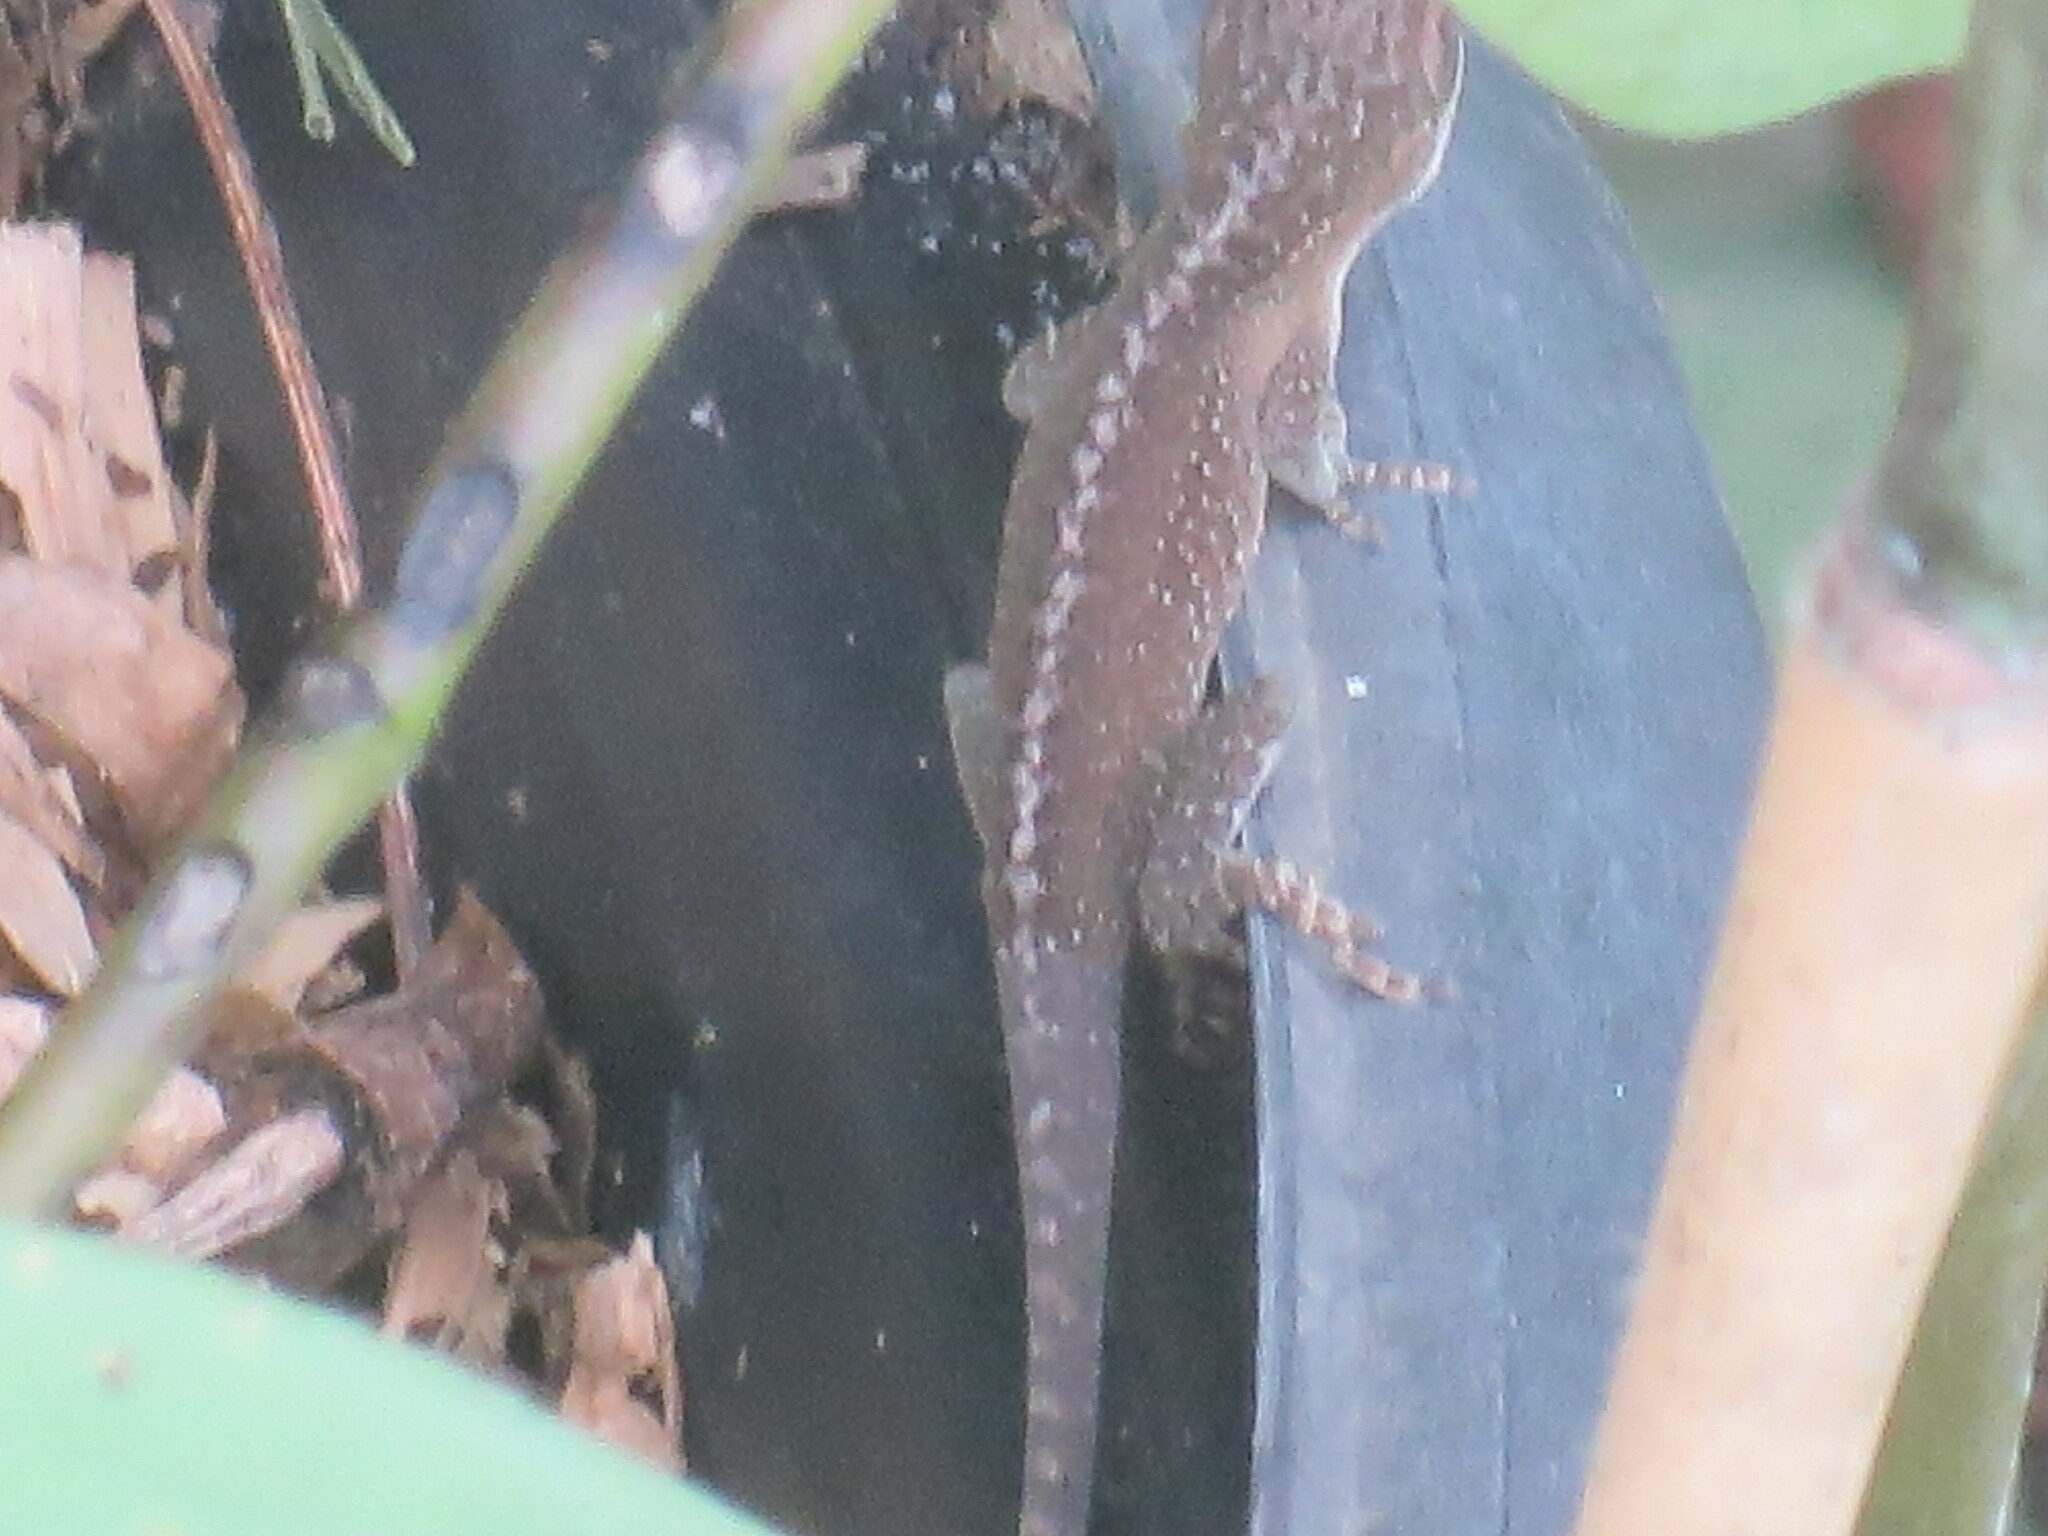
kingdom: Animalia
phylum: Chordata
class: Squamata
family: Dactyloidae
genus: Anolis
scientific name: Anolis carolinensis
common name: Green anole
